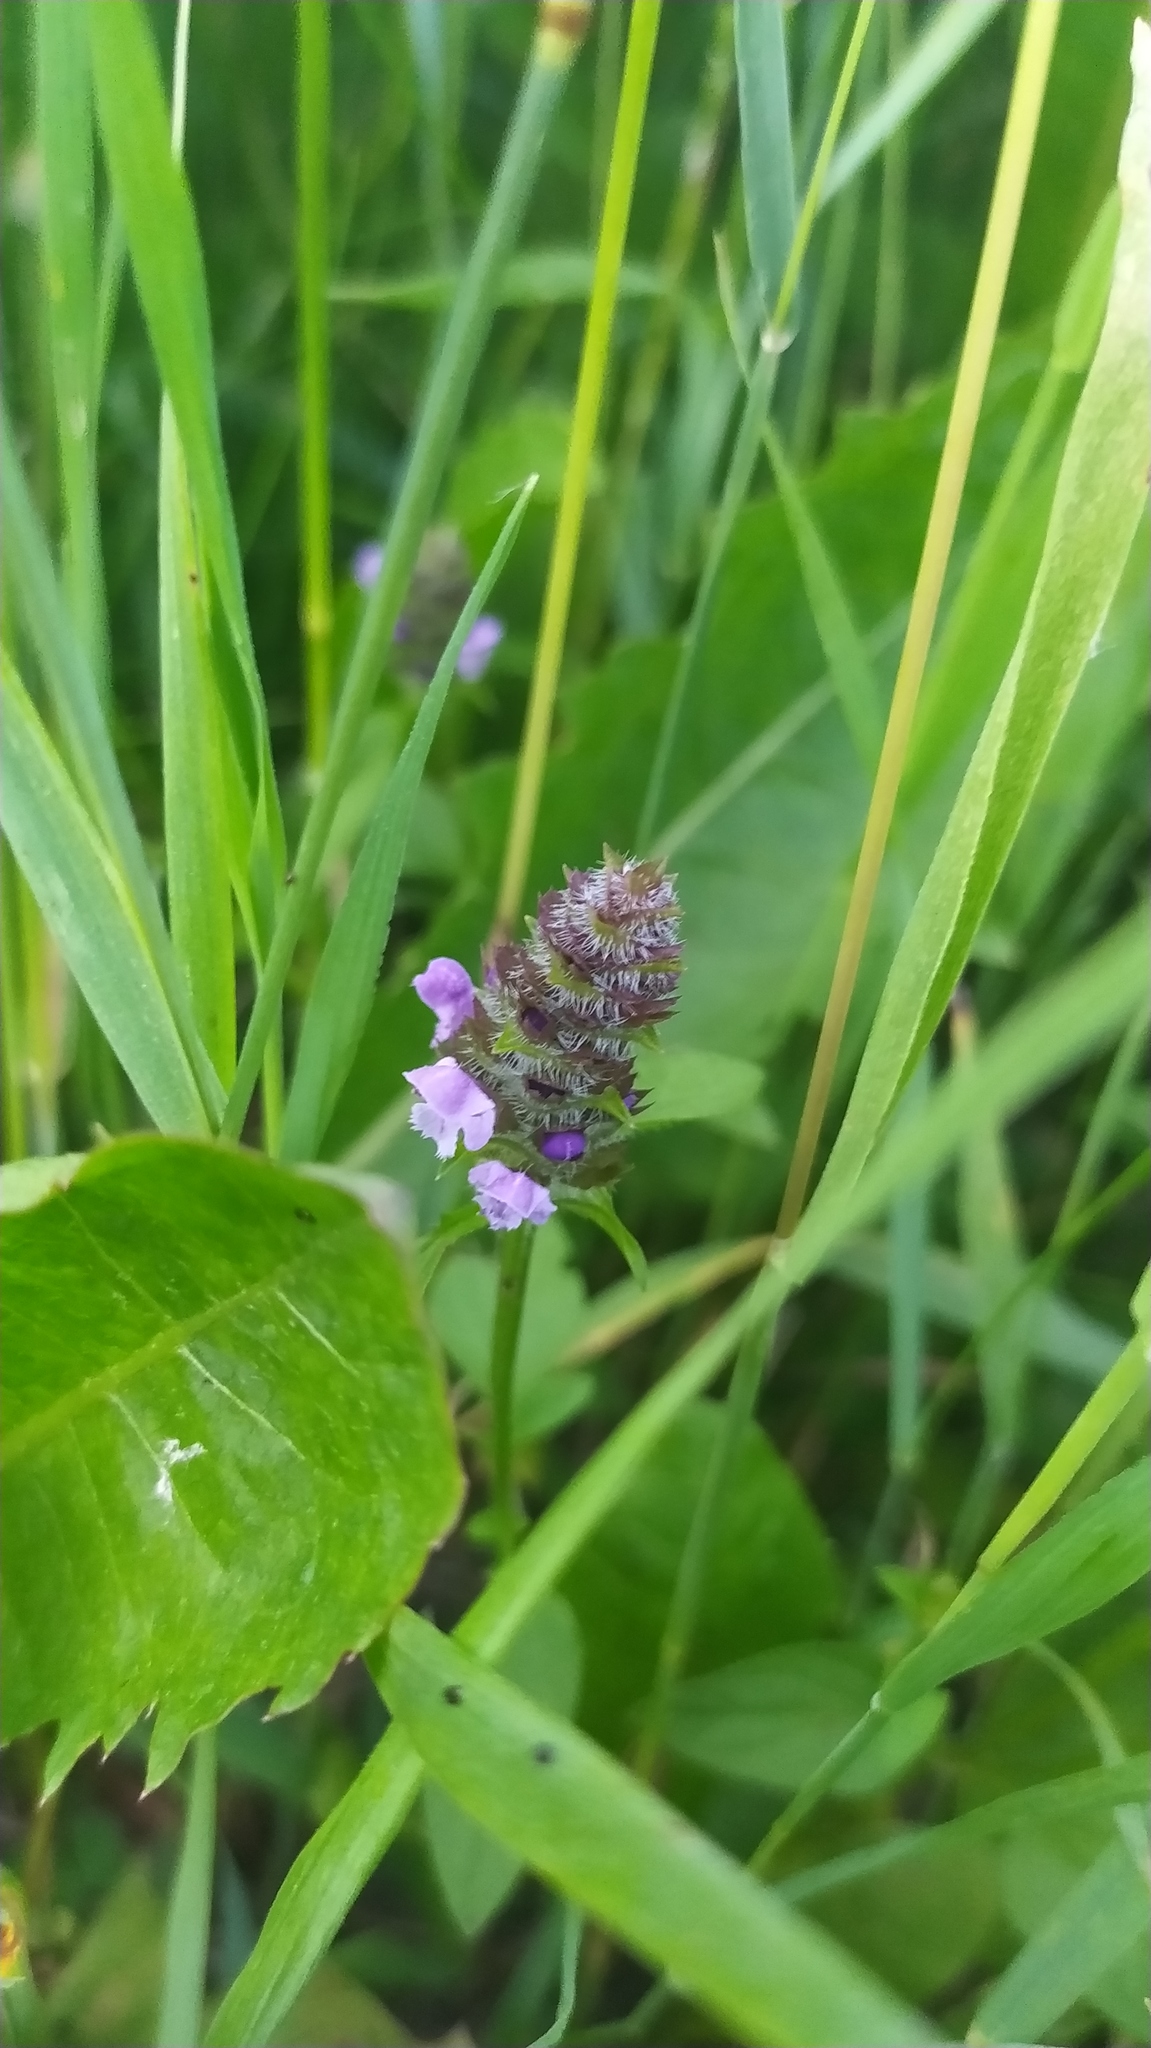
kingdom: Plantae
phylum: Tracheophyta
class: Magnoliopsida
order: Lamiales
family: Lamiaceae
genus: Prunella
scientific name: Prunella vulgaris
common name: Heal-all
